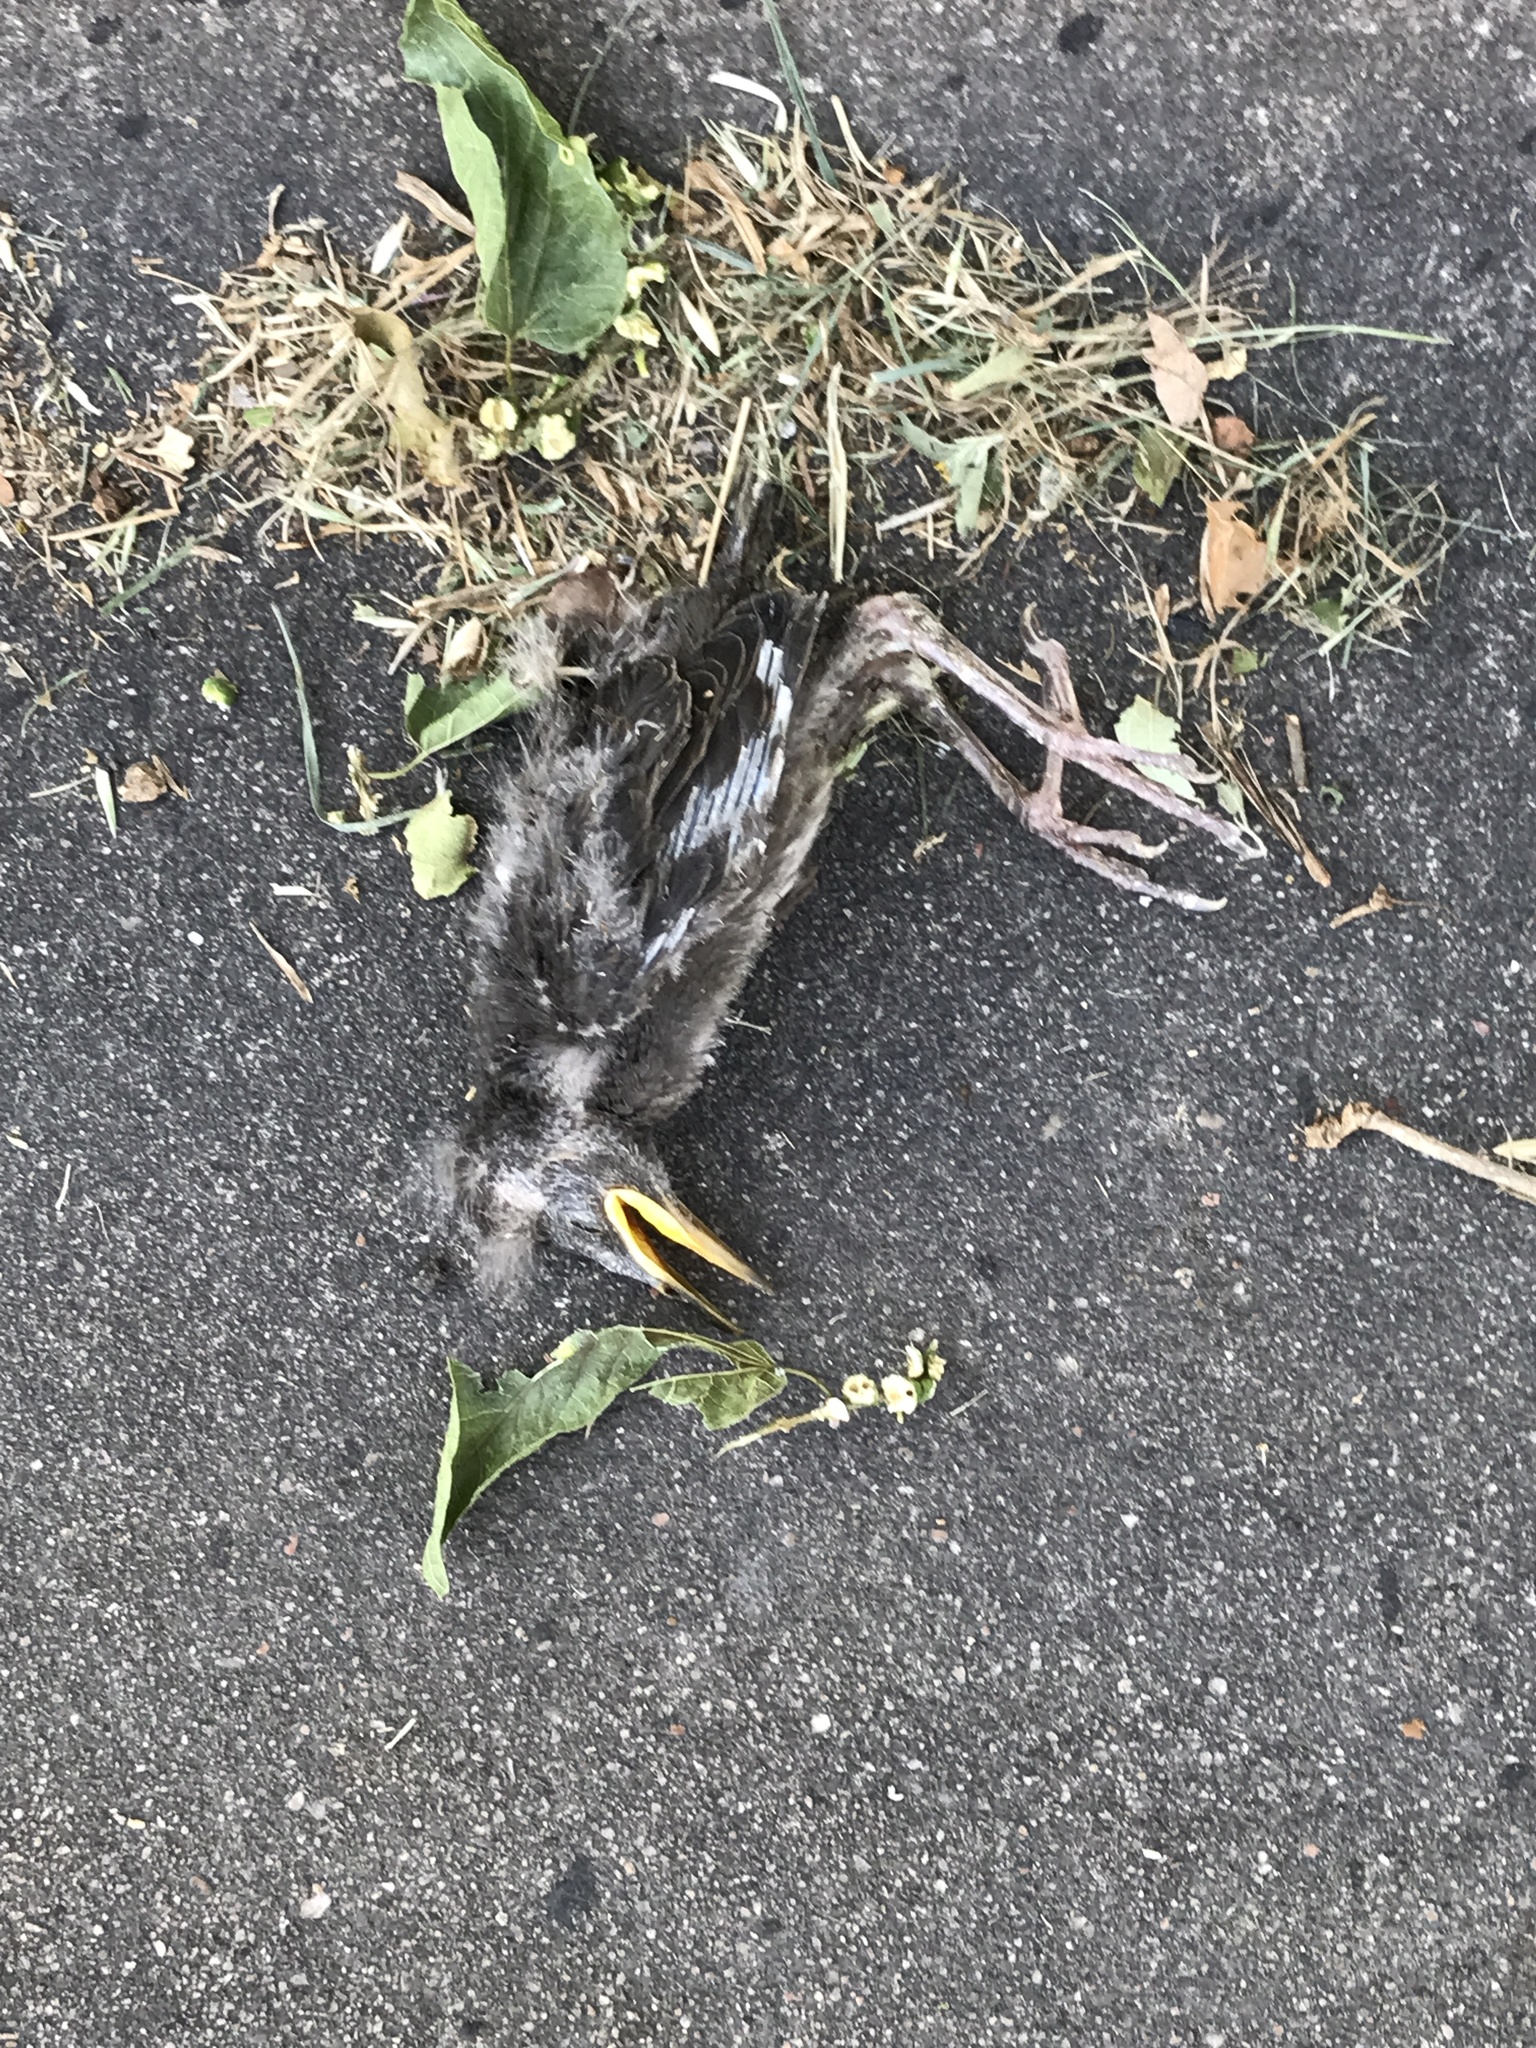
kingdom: Animalia
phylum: Chordata
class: Aves
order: Passeriformes
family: Sturnidae
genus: Sturnus
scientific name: Sturnus vulgaris
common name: Common starling
